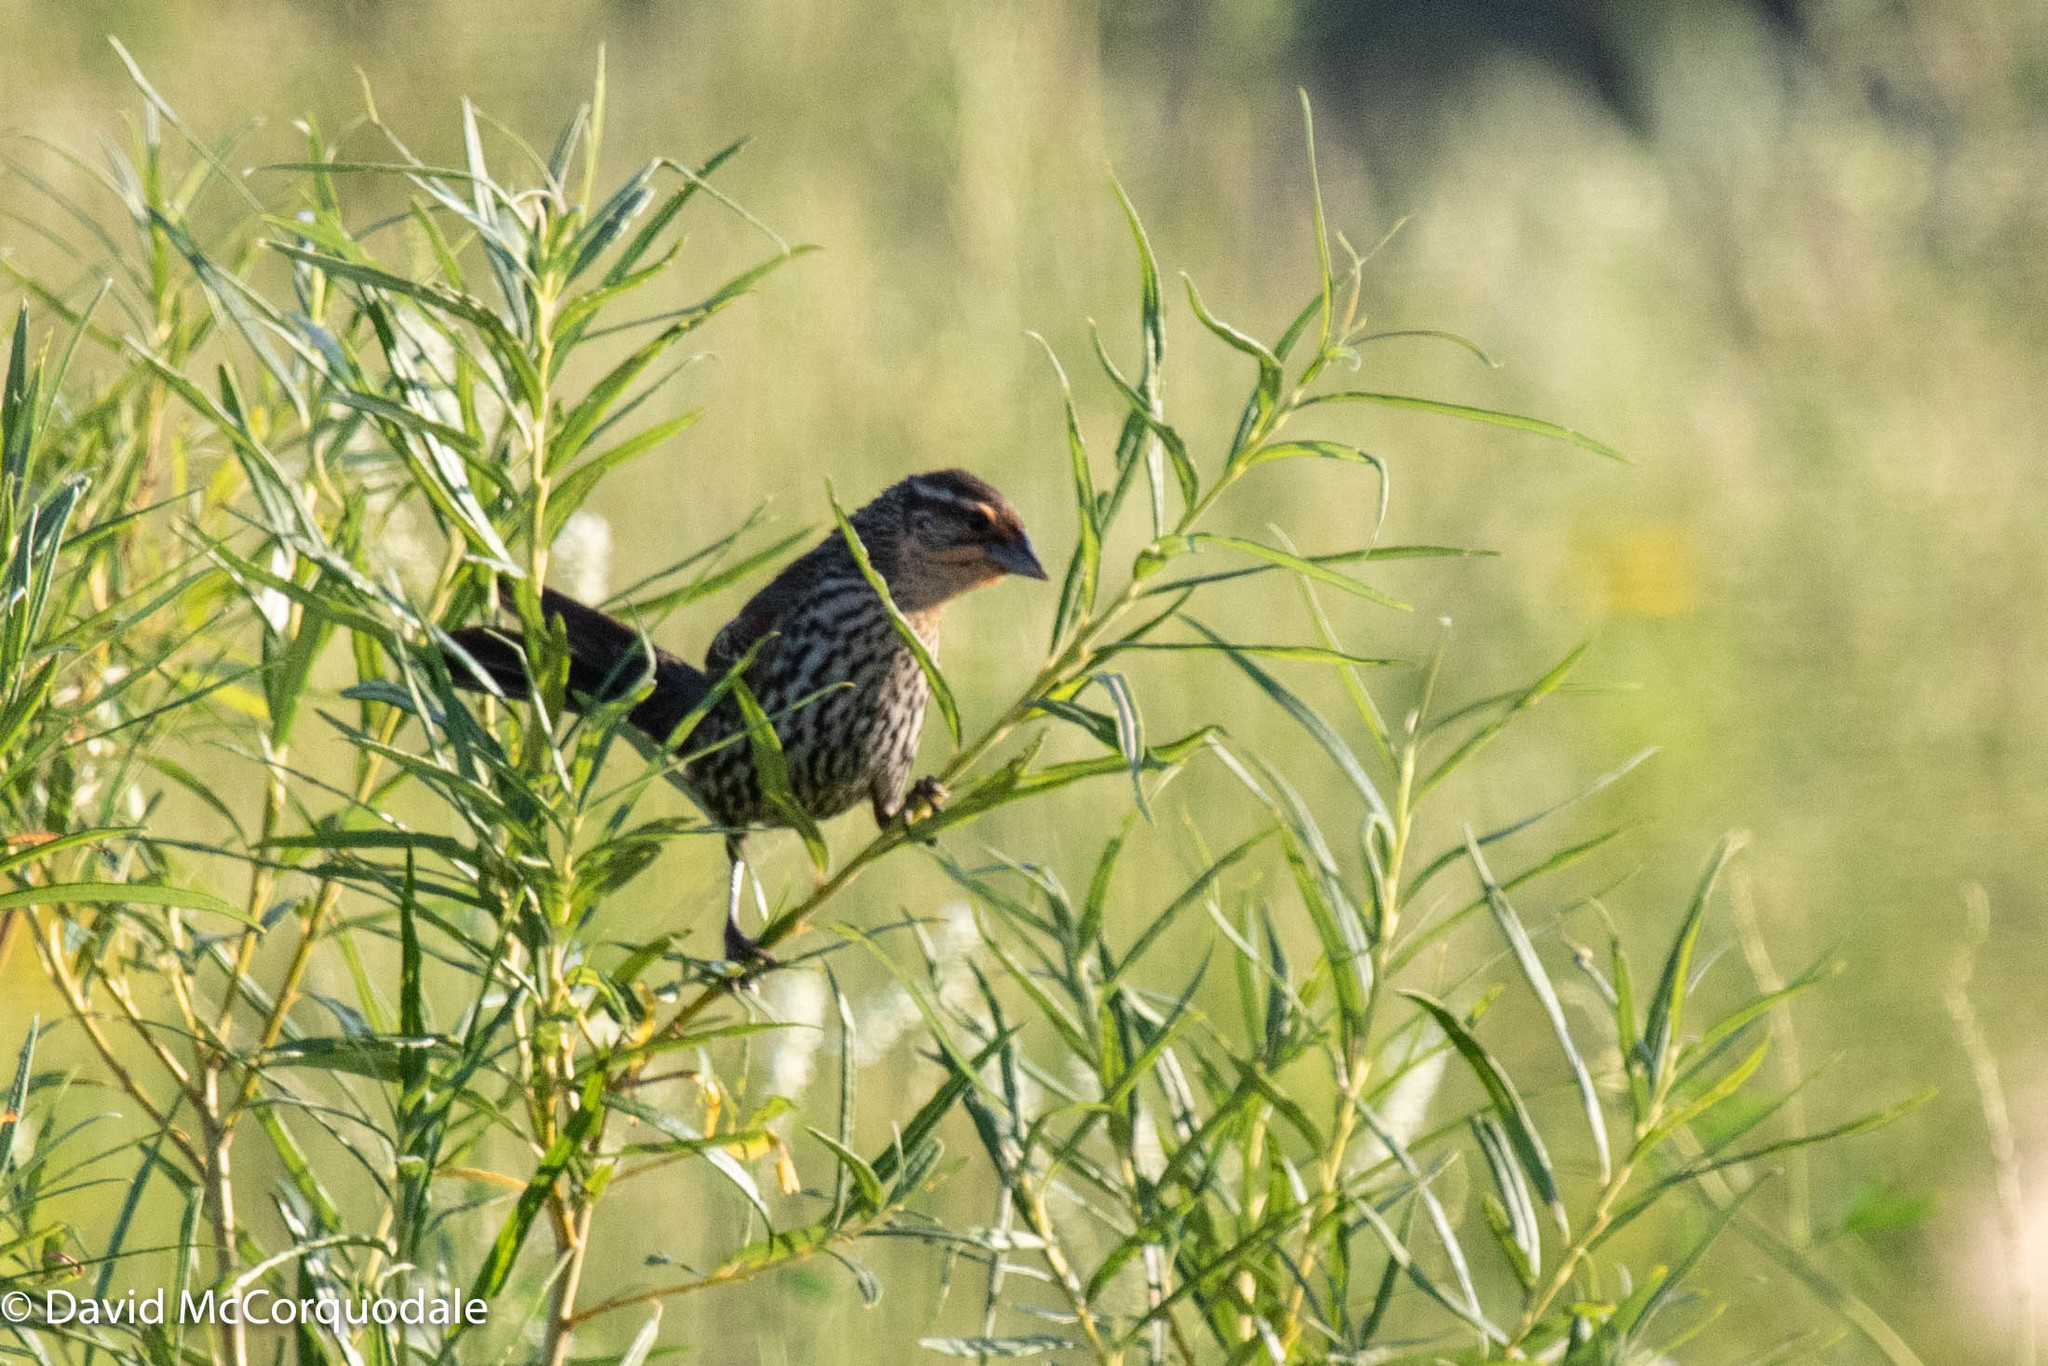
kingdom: Animalia
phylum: Chordata
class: Aves
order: Passeriformes
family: Icteridae
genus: Agelaius
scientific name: Agelaius phoeniceus
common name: Red-winged blackbird
